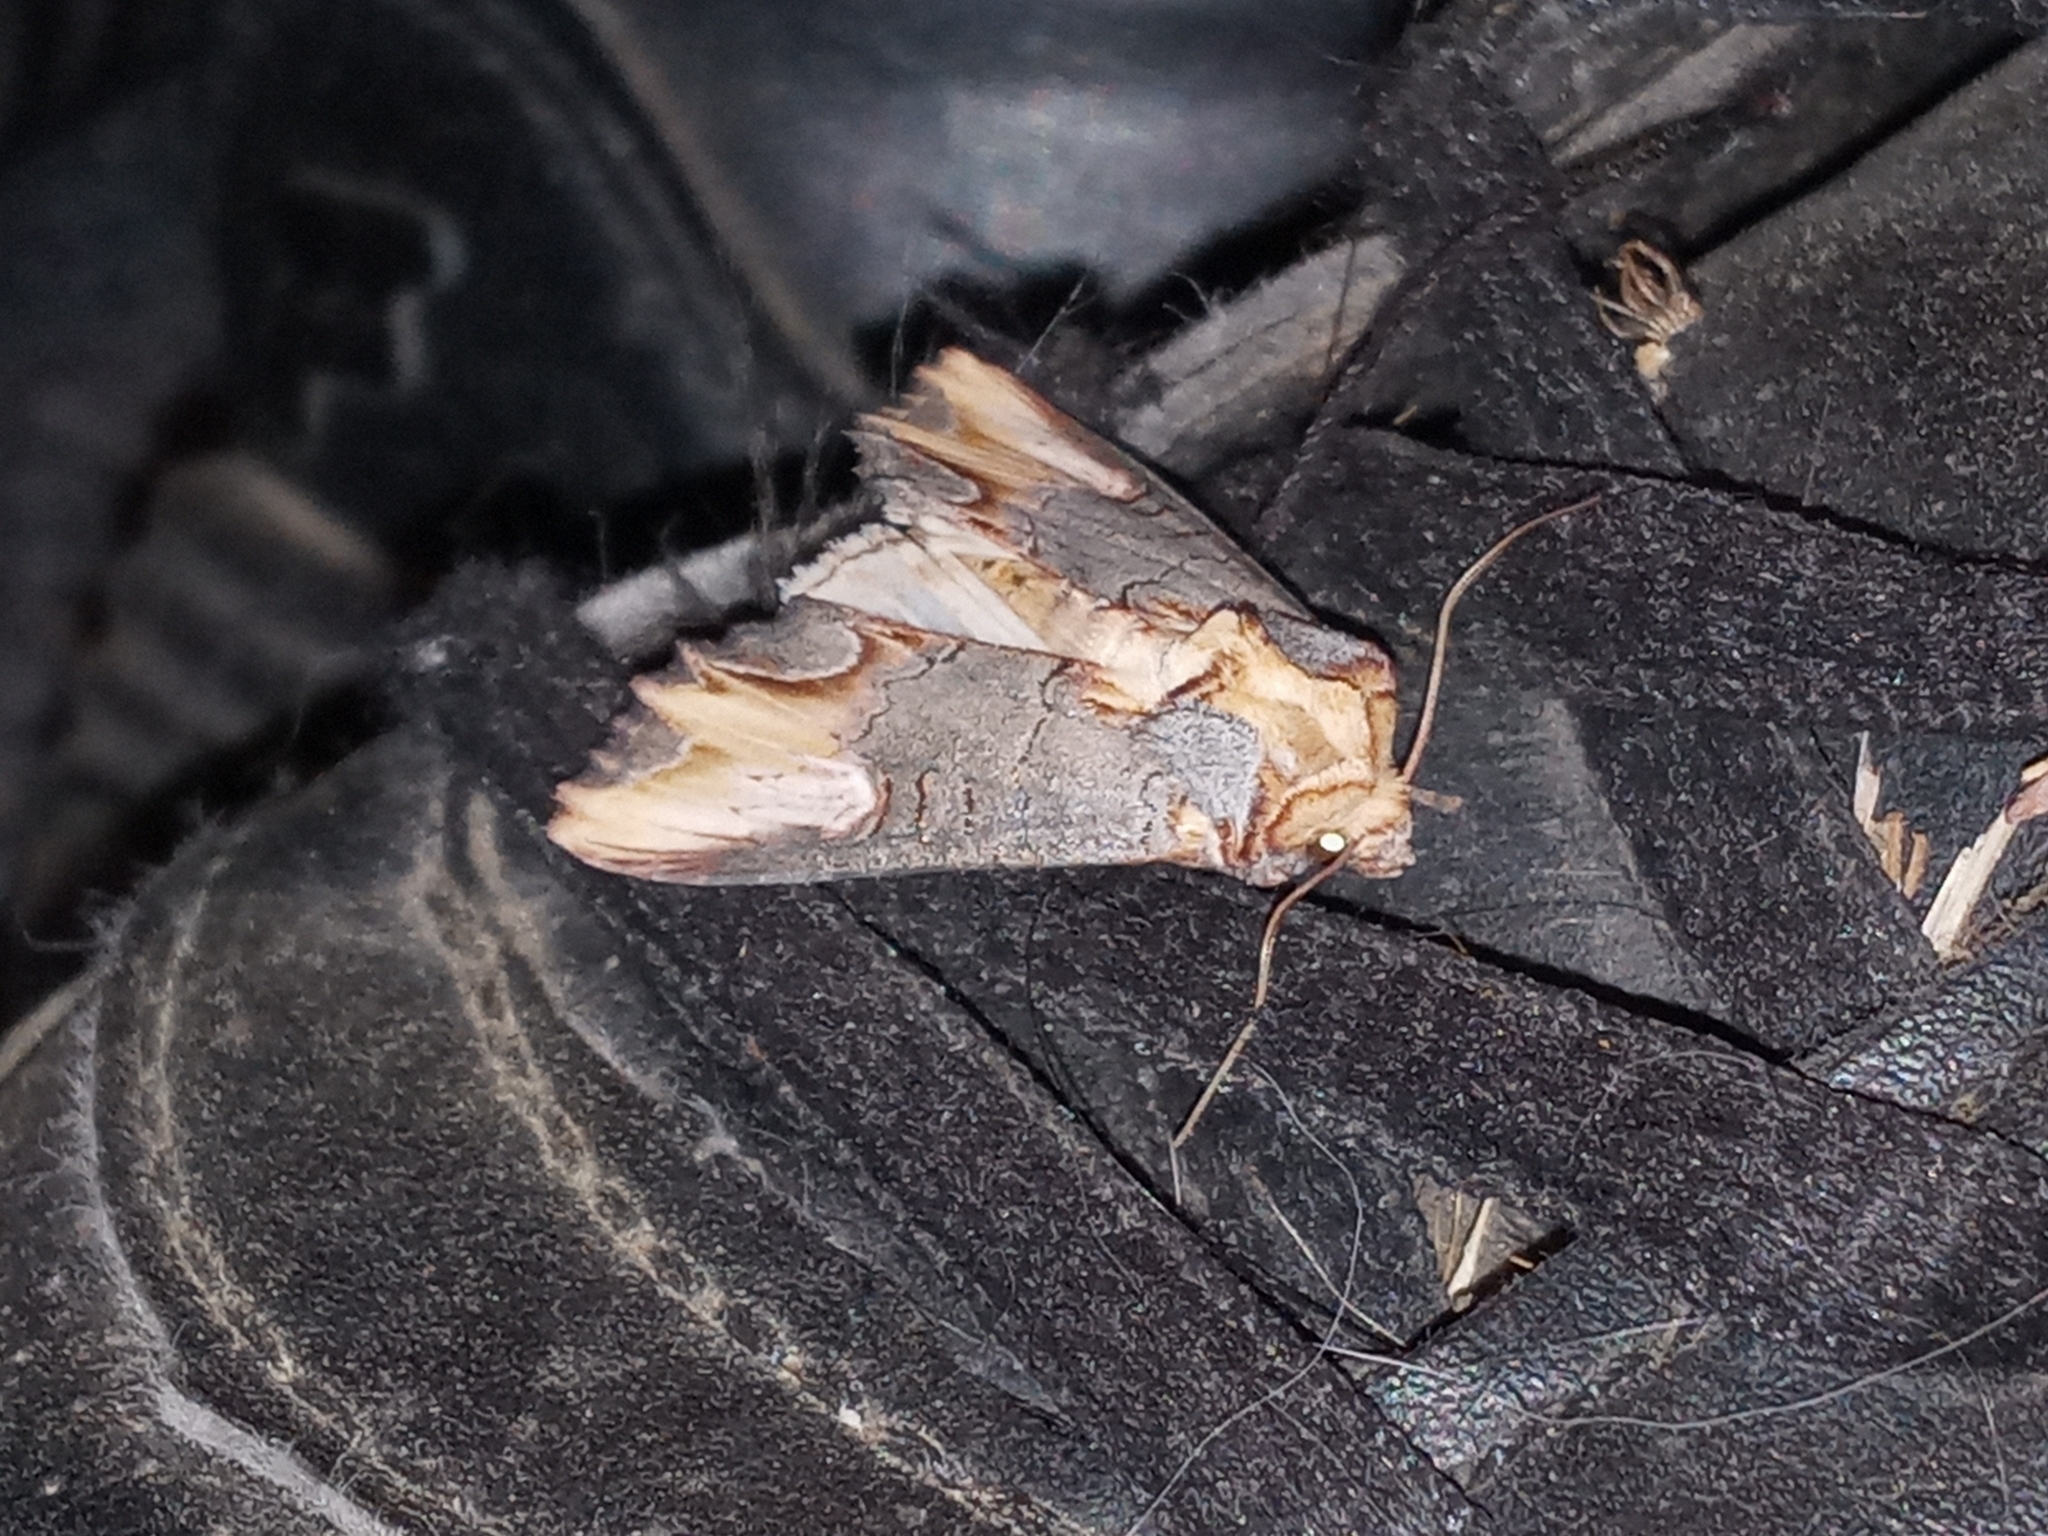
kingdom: Animalia
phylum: Arthropoda
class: Insecta
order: Lepidoptera
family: Noctuidae
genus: Admetovis
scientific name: Admetovis similaris
